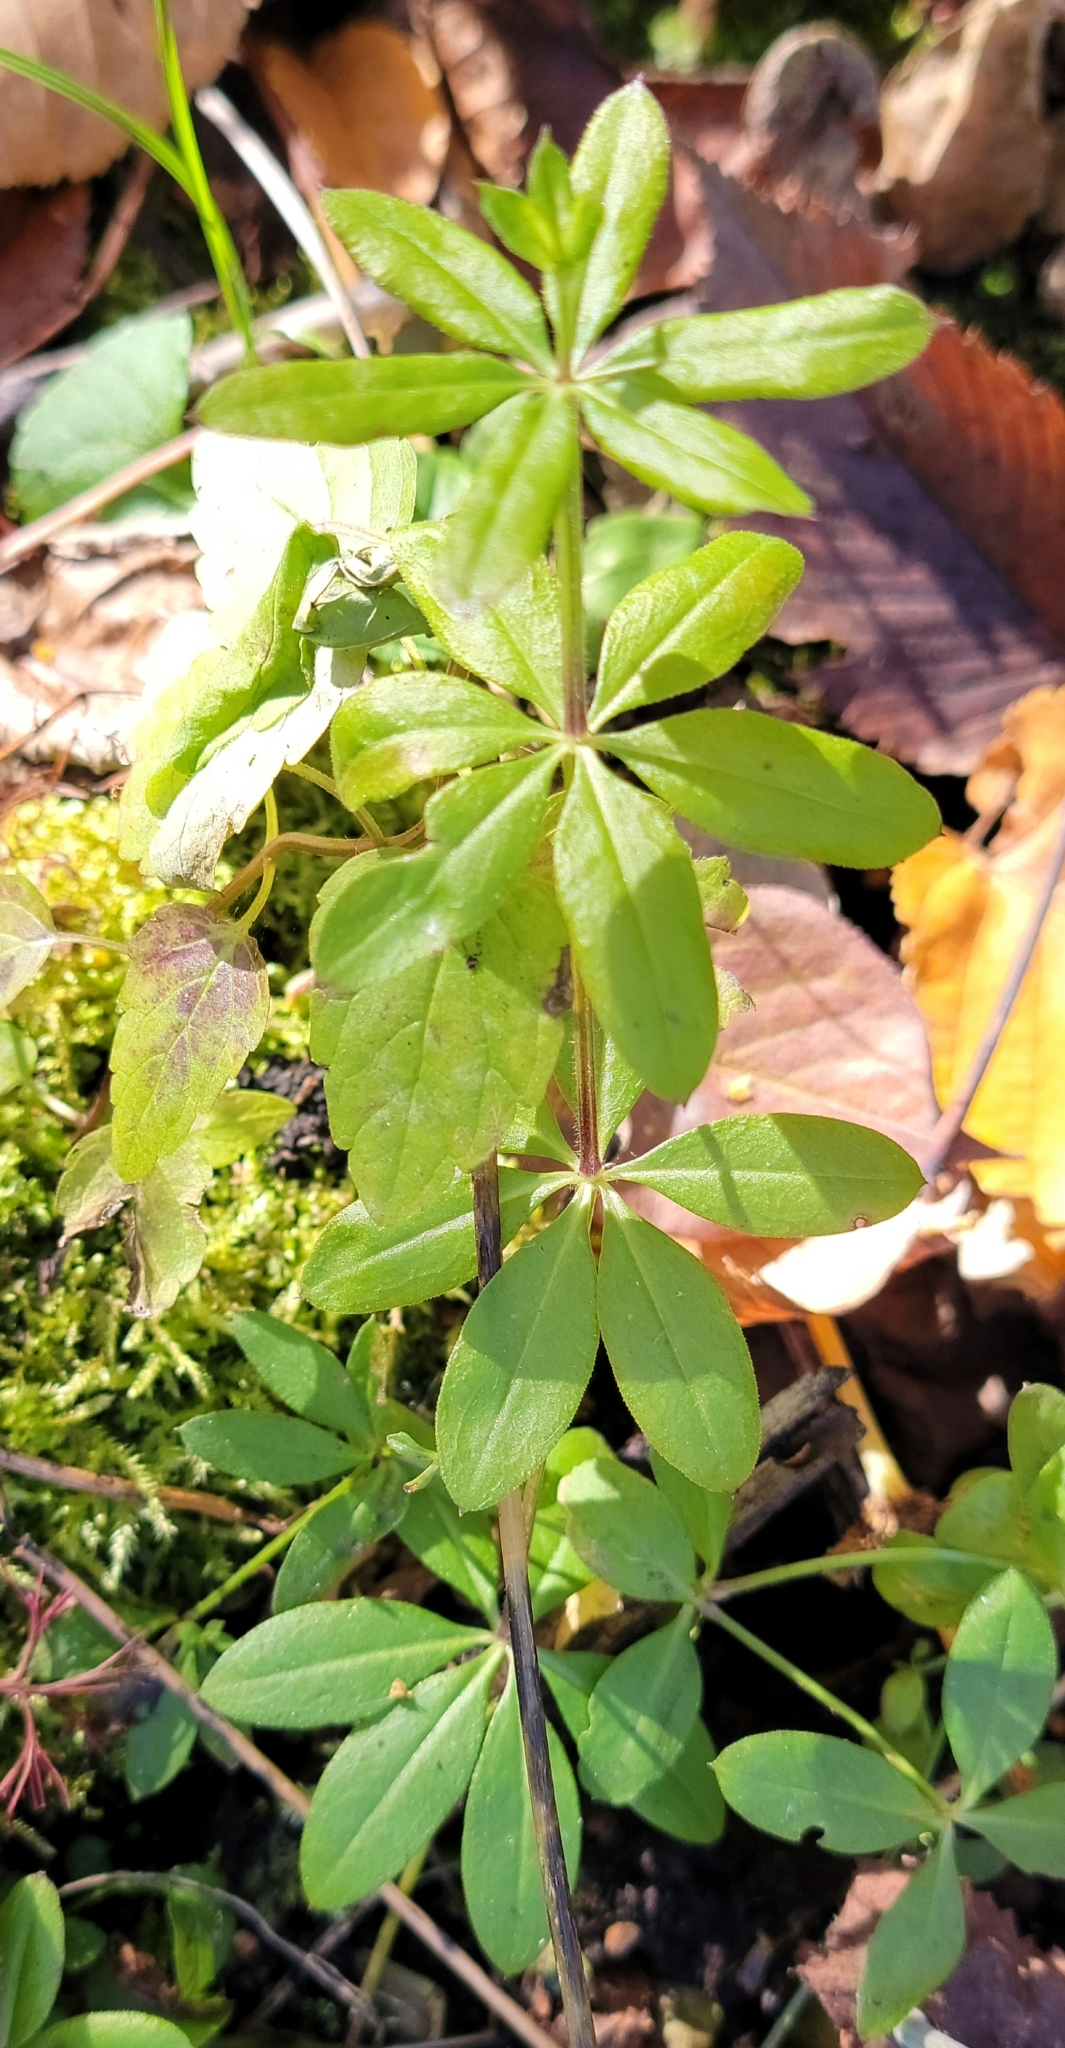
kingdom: Plantae
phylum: Tracheophyta
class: Magnoliopsida
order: Gentianales
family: Rubiaceae
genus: Galium
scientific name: Galium triflorum
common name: Fragrant bedstraw
